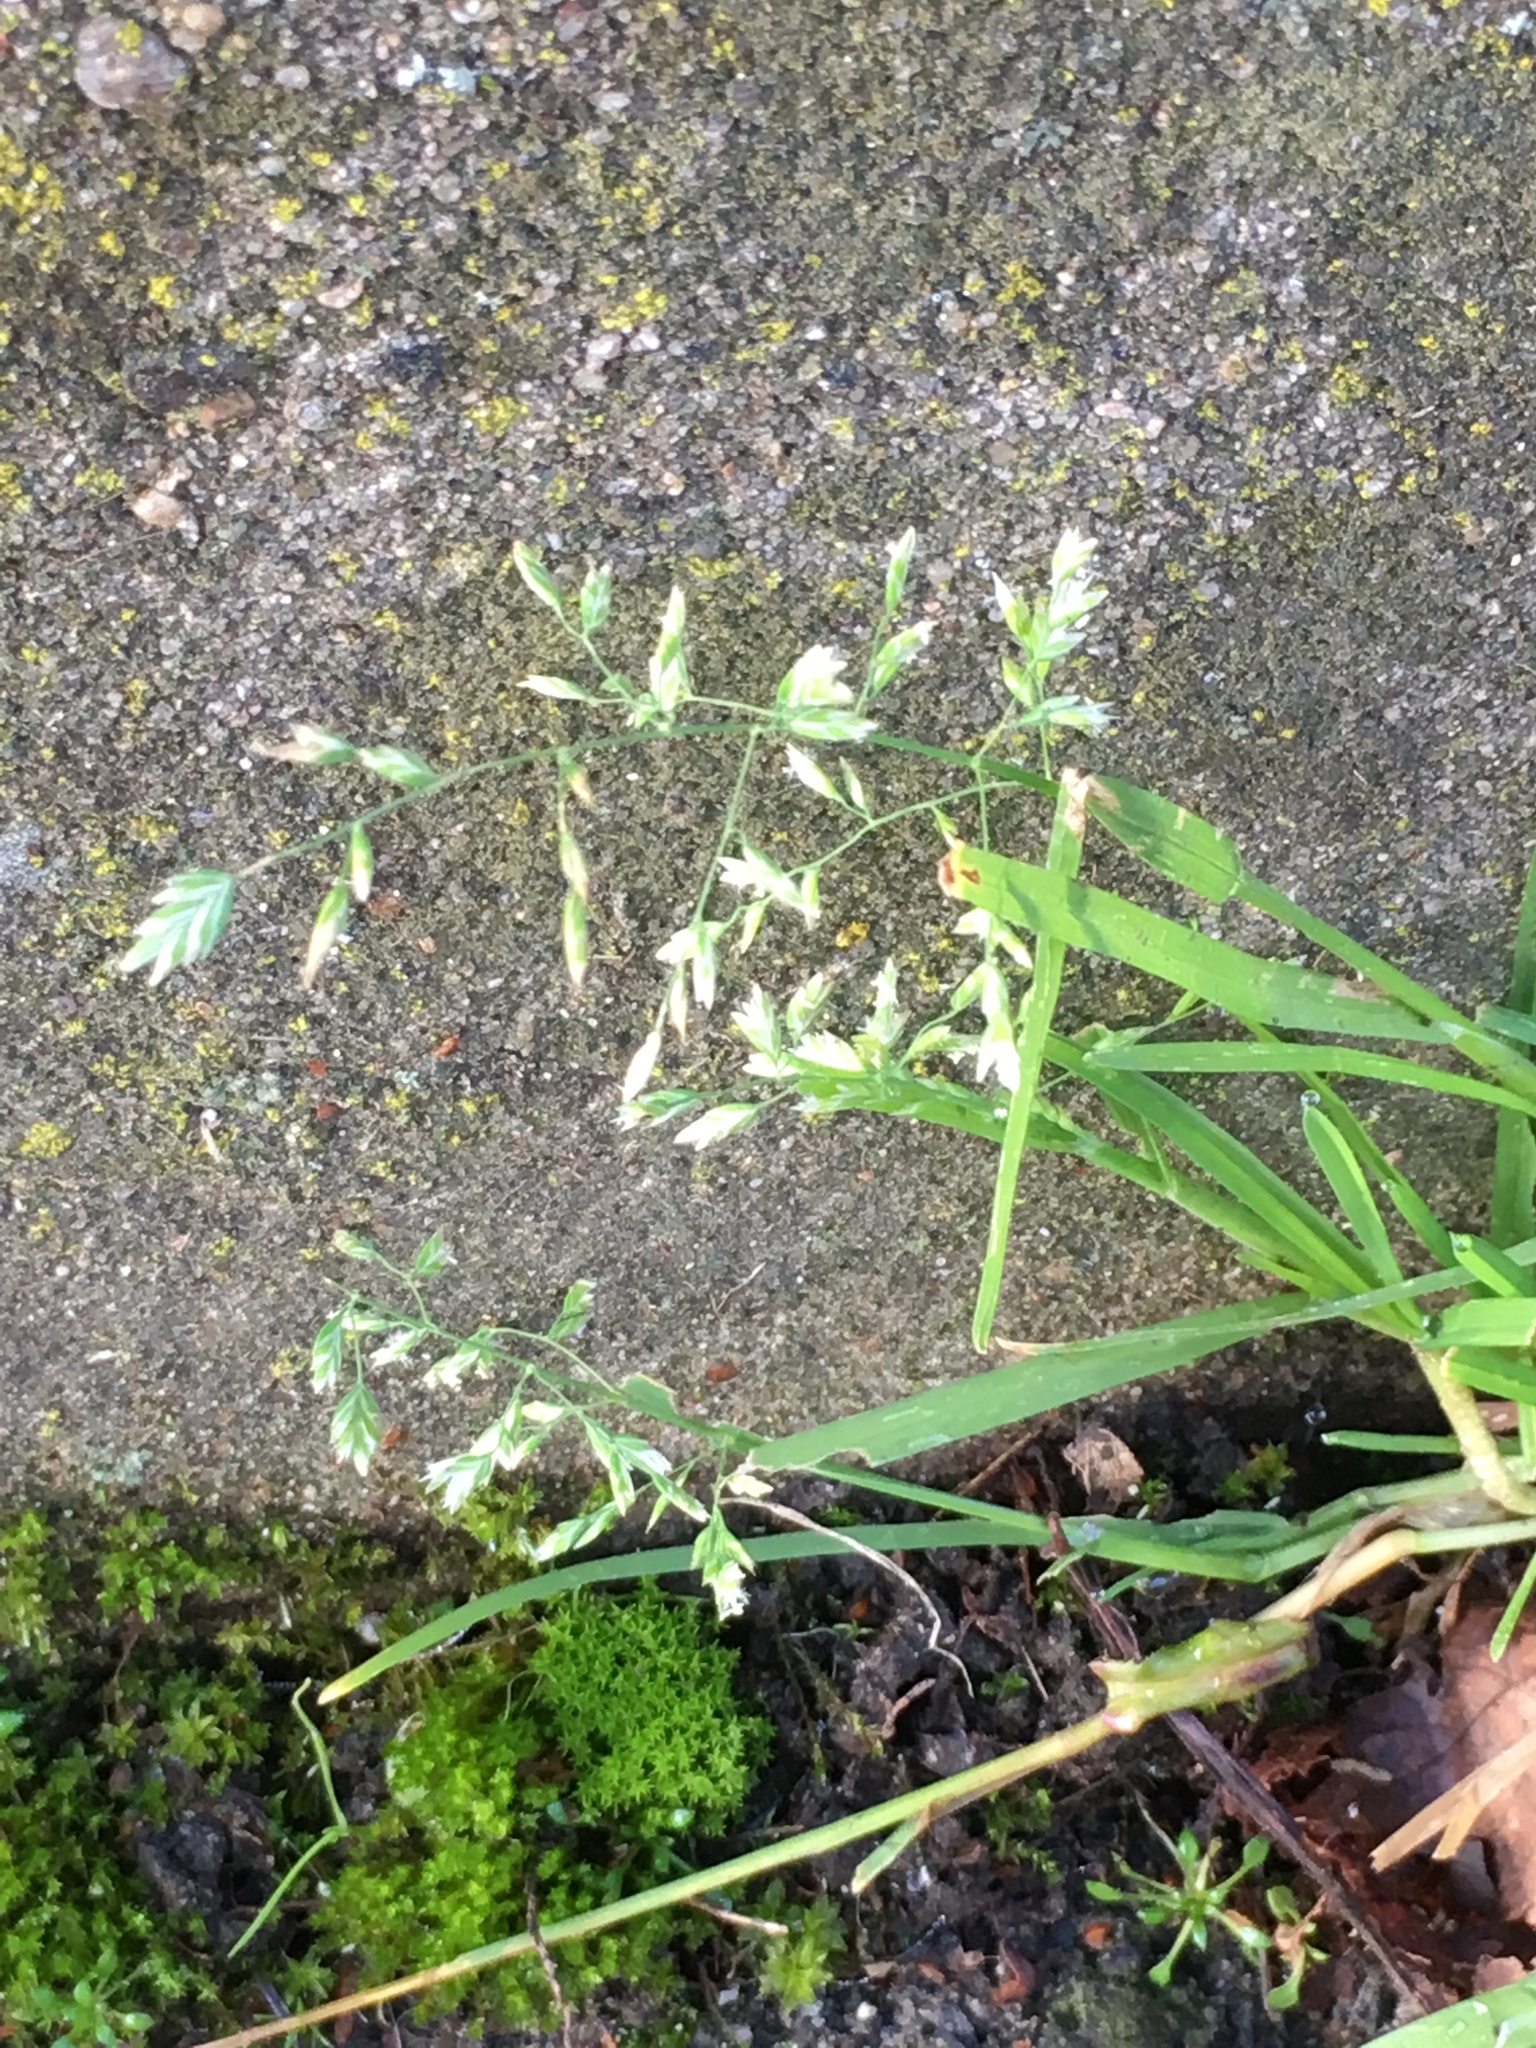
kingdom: Plantae
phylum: Tracheophyta
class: Liliopsida
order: Poales
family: Poaceae
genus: Poa
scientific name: Poa annua
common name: Annual bluegrass
